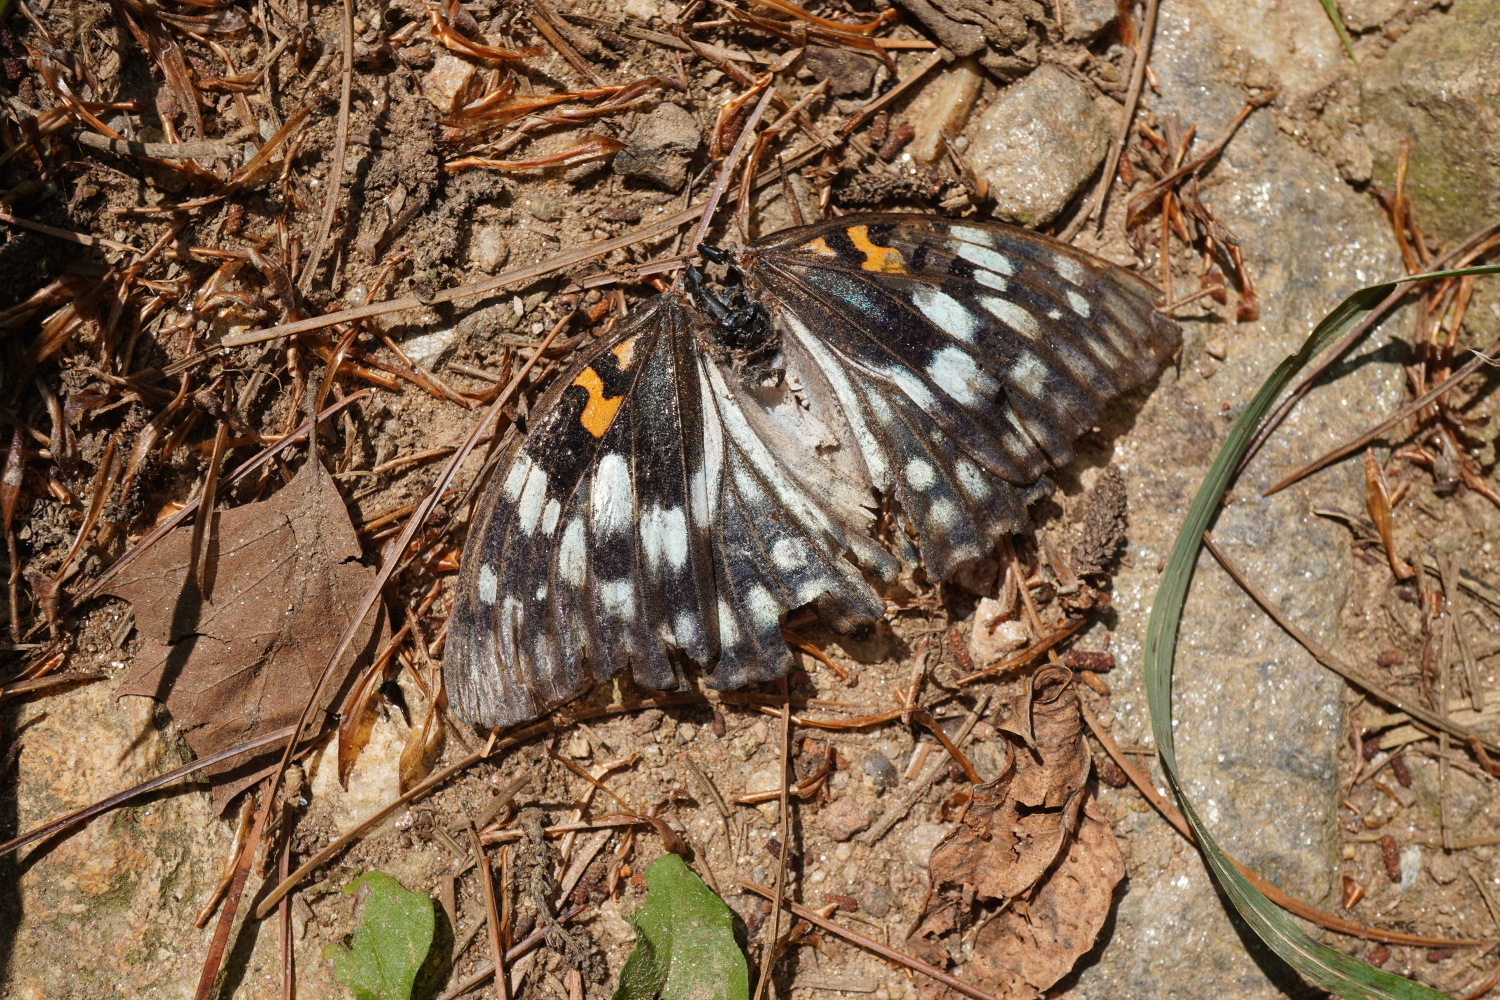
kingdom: Animalia
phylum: Arthropoda
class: Insecta
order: Lepidoptera
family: Nymphalidae
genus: Sephisa
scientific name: Sephisa dichroa
